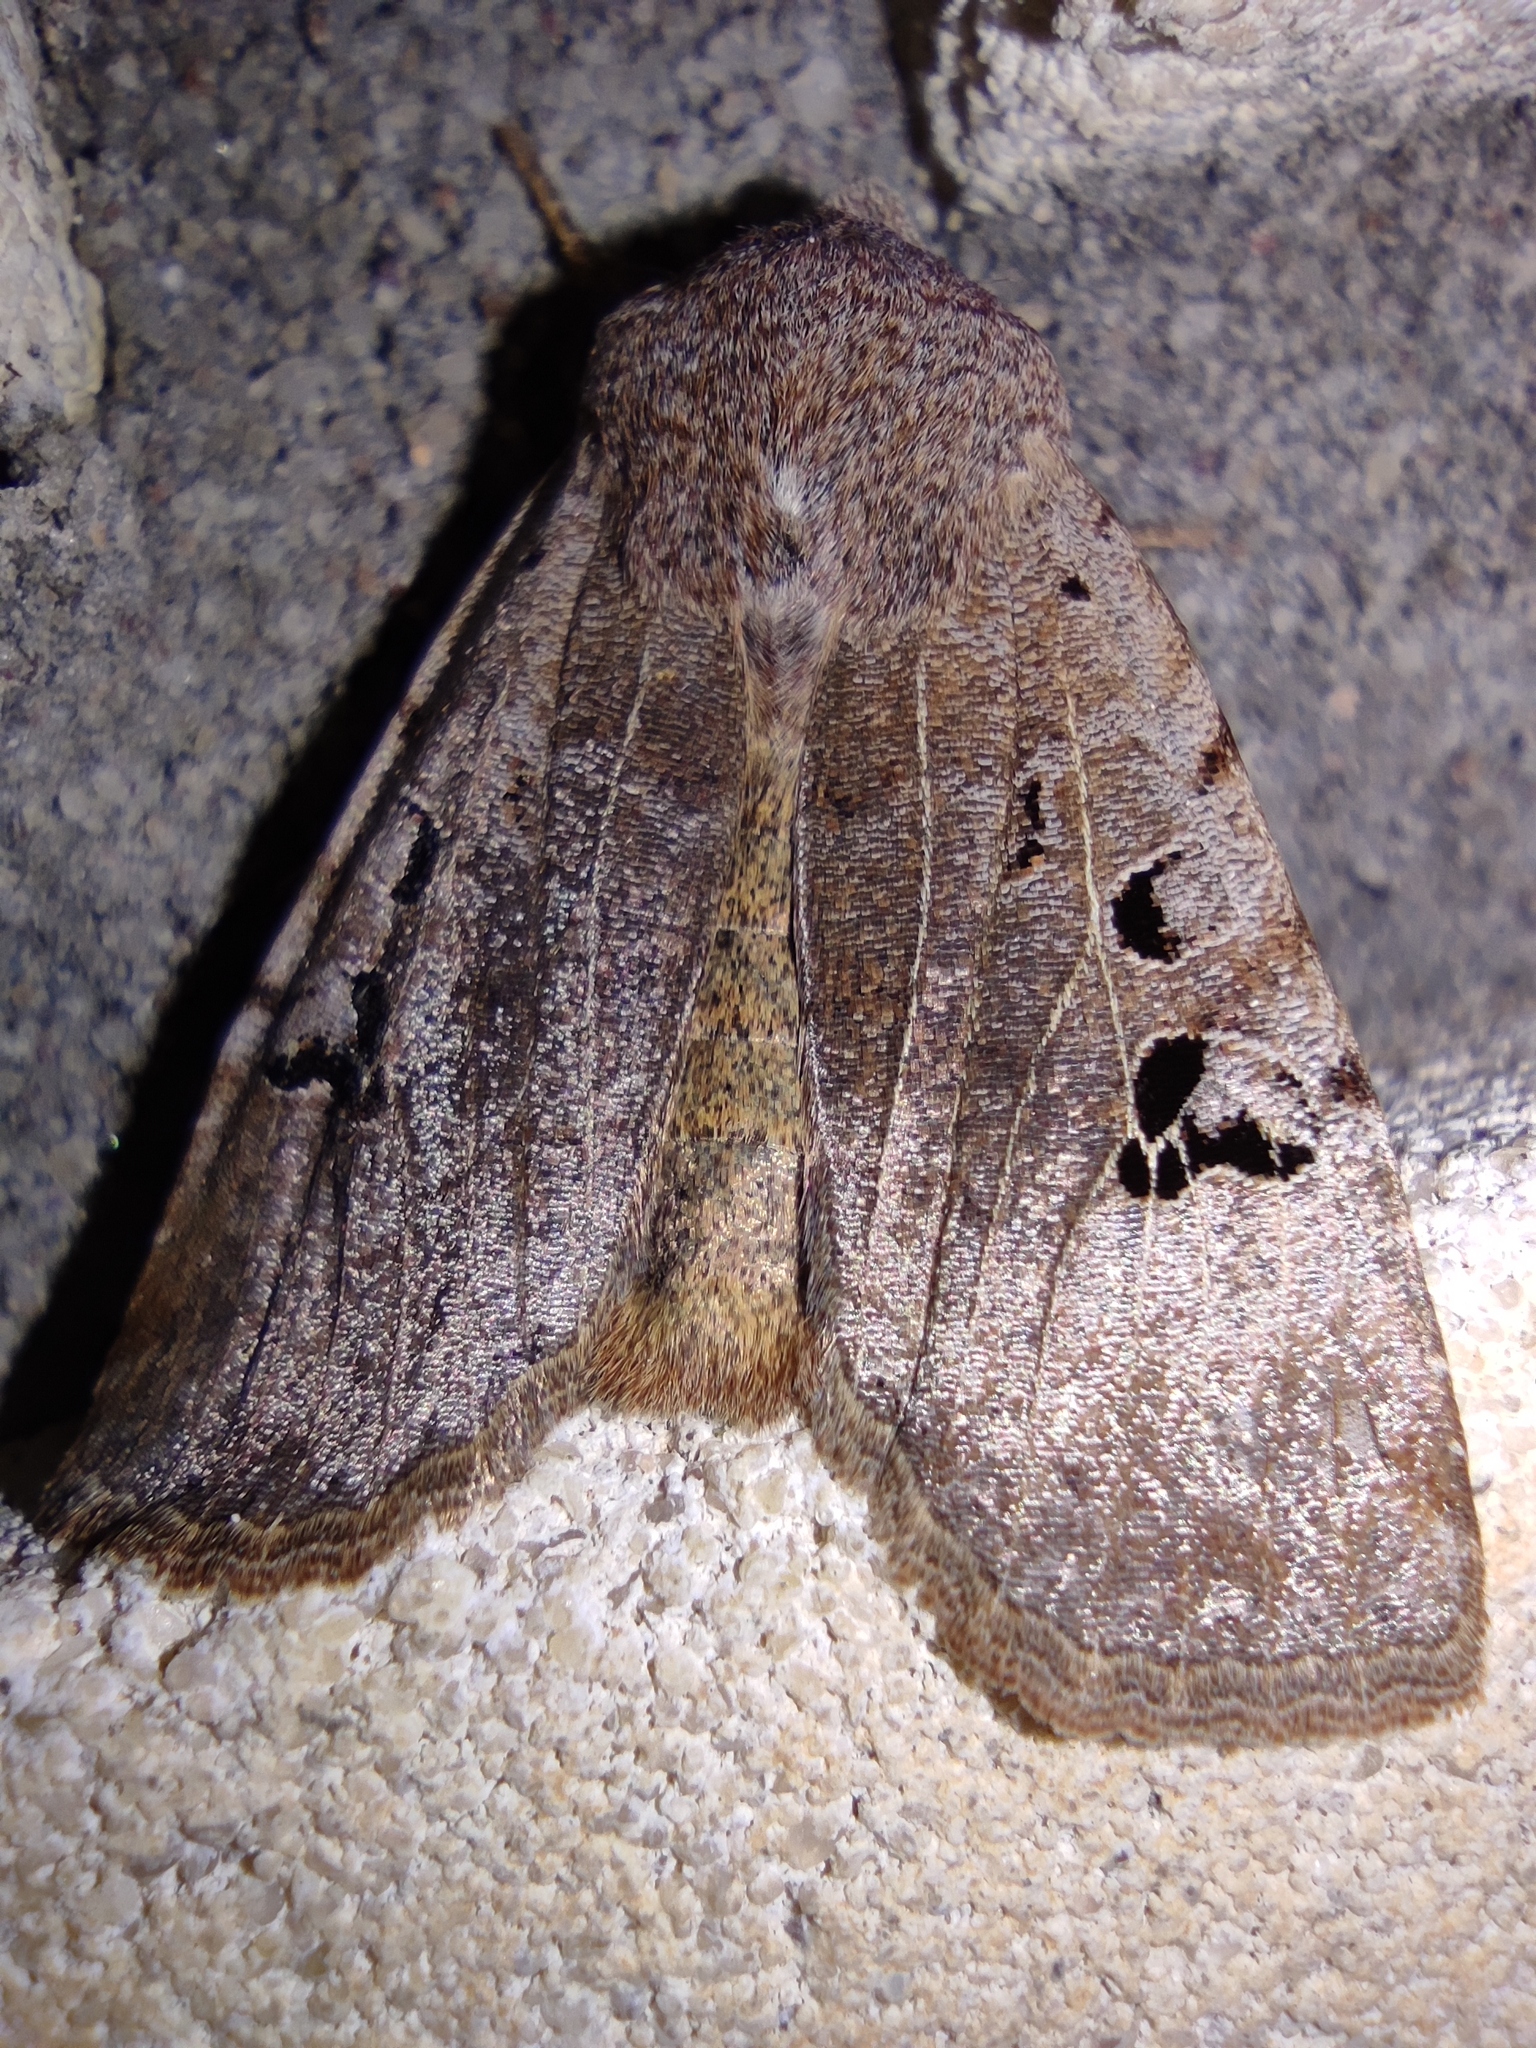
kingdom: Animalia
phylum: Arthropoda
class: Insecta
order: Lepidoptera
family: Noctuidae
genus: Conistra
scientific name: Conistra rubiginosa
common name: Black-spotted chestnut
